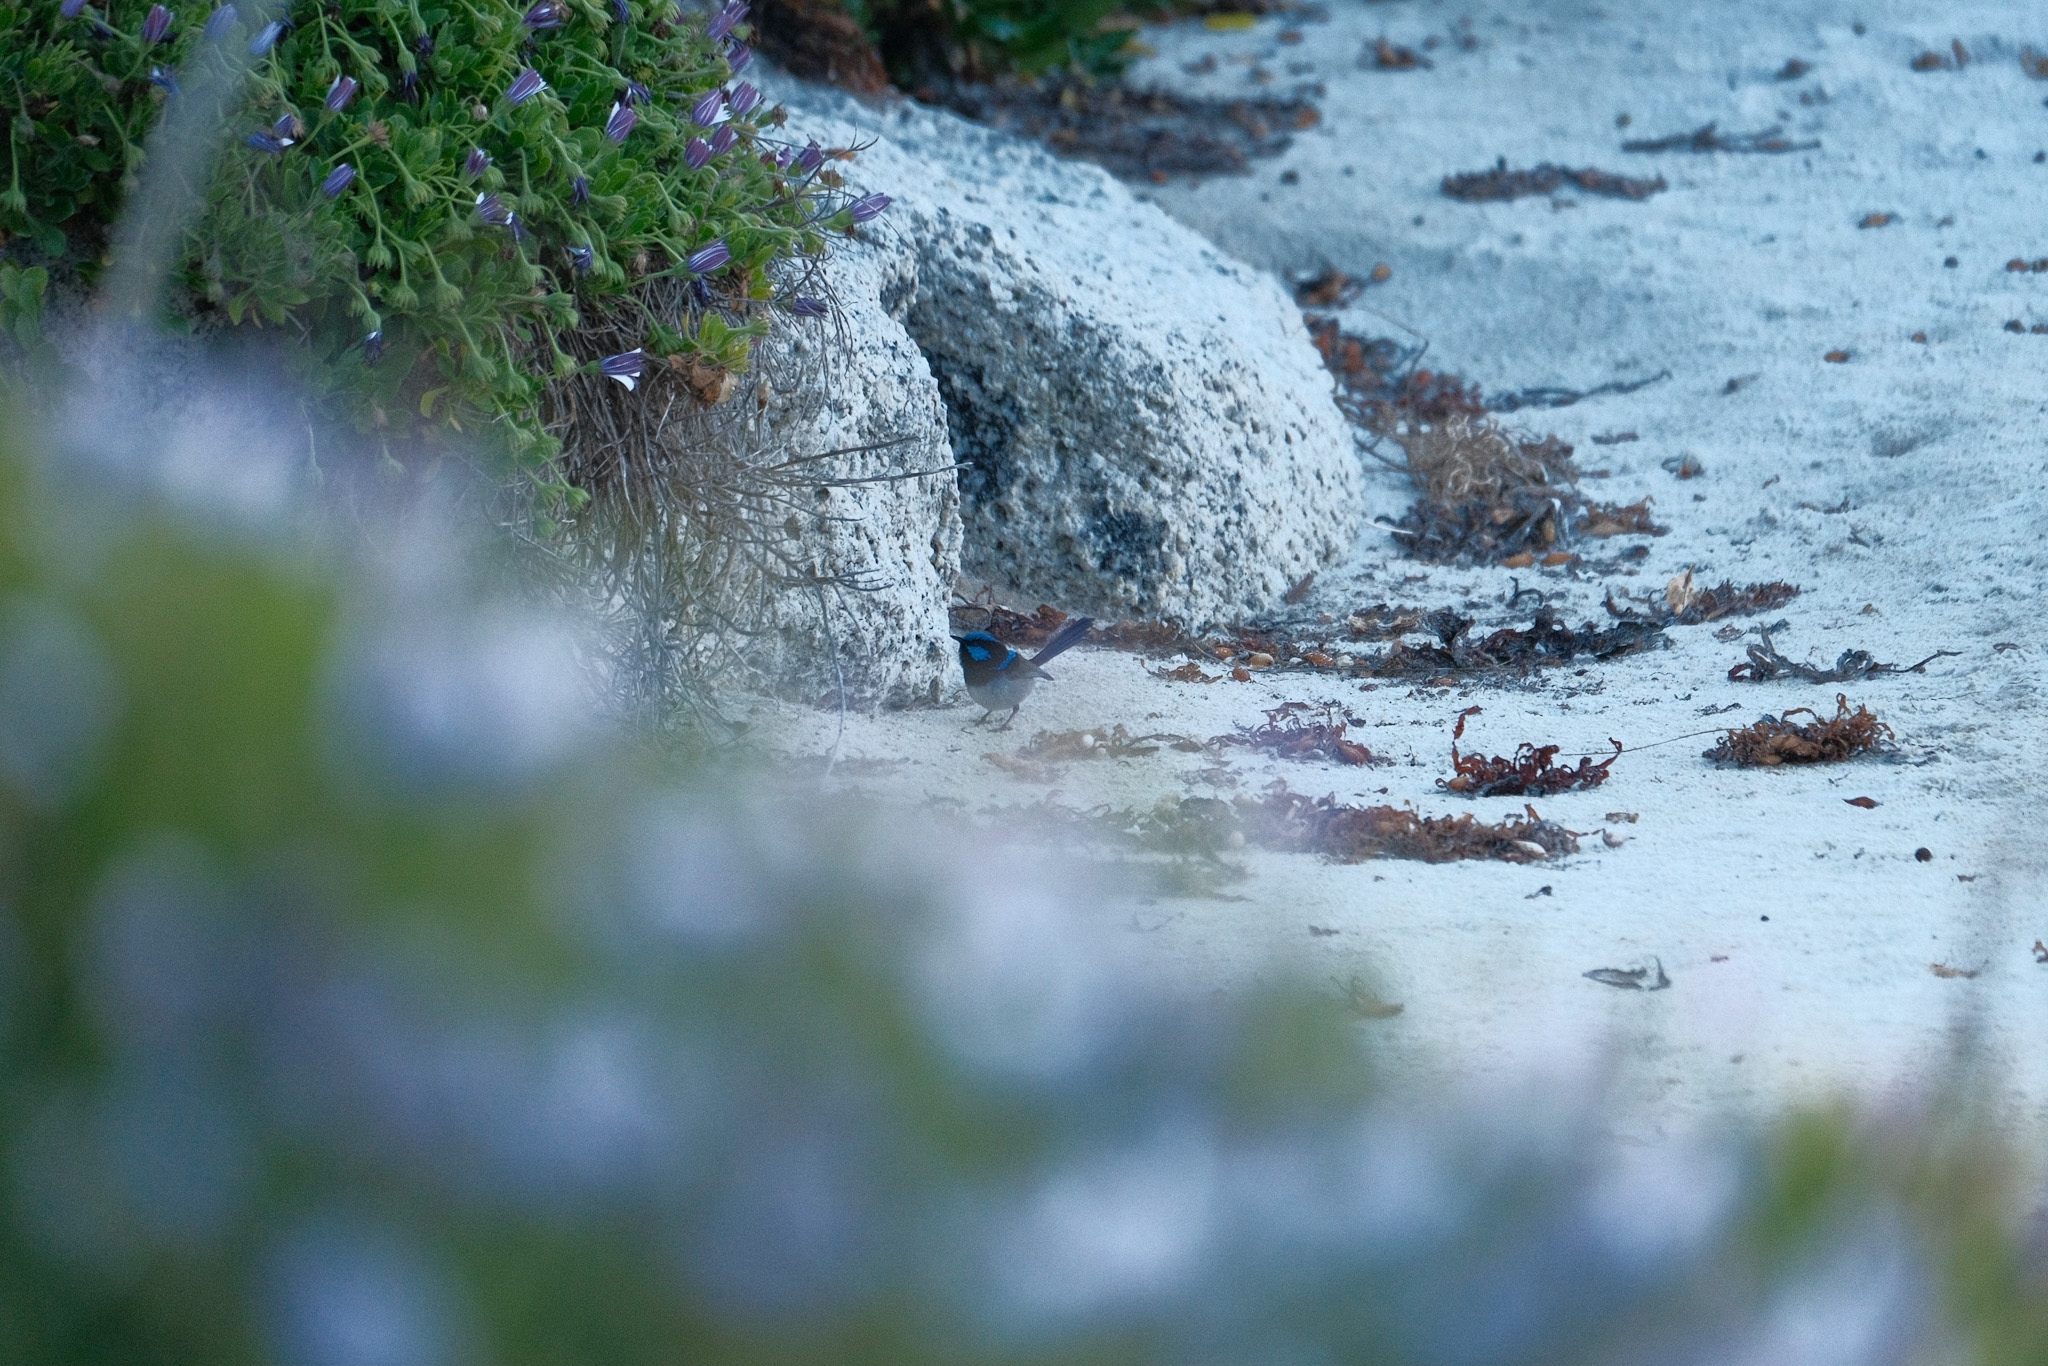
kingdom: Animalia
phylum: Chordata
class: Aves
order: Passeriformes
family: Maluridae
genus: Malurus
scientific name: Malurus cyaneus
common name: Superb fairywren
